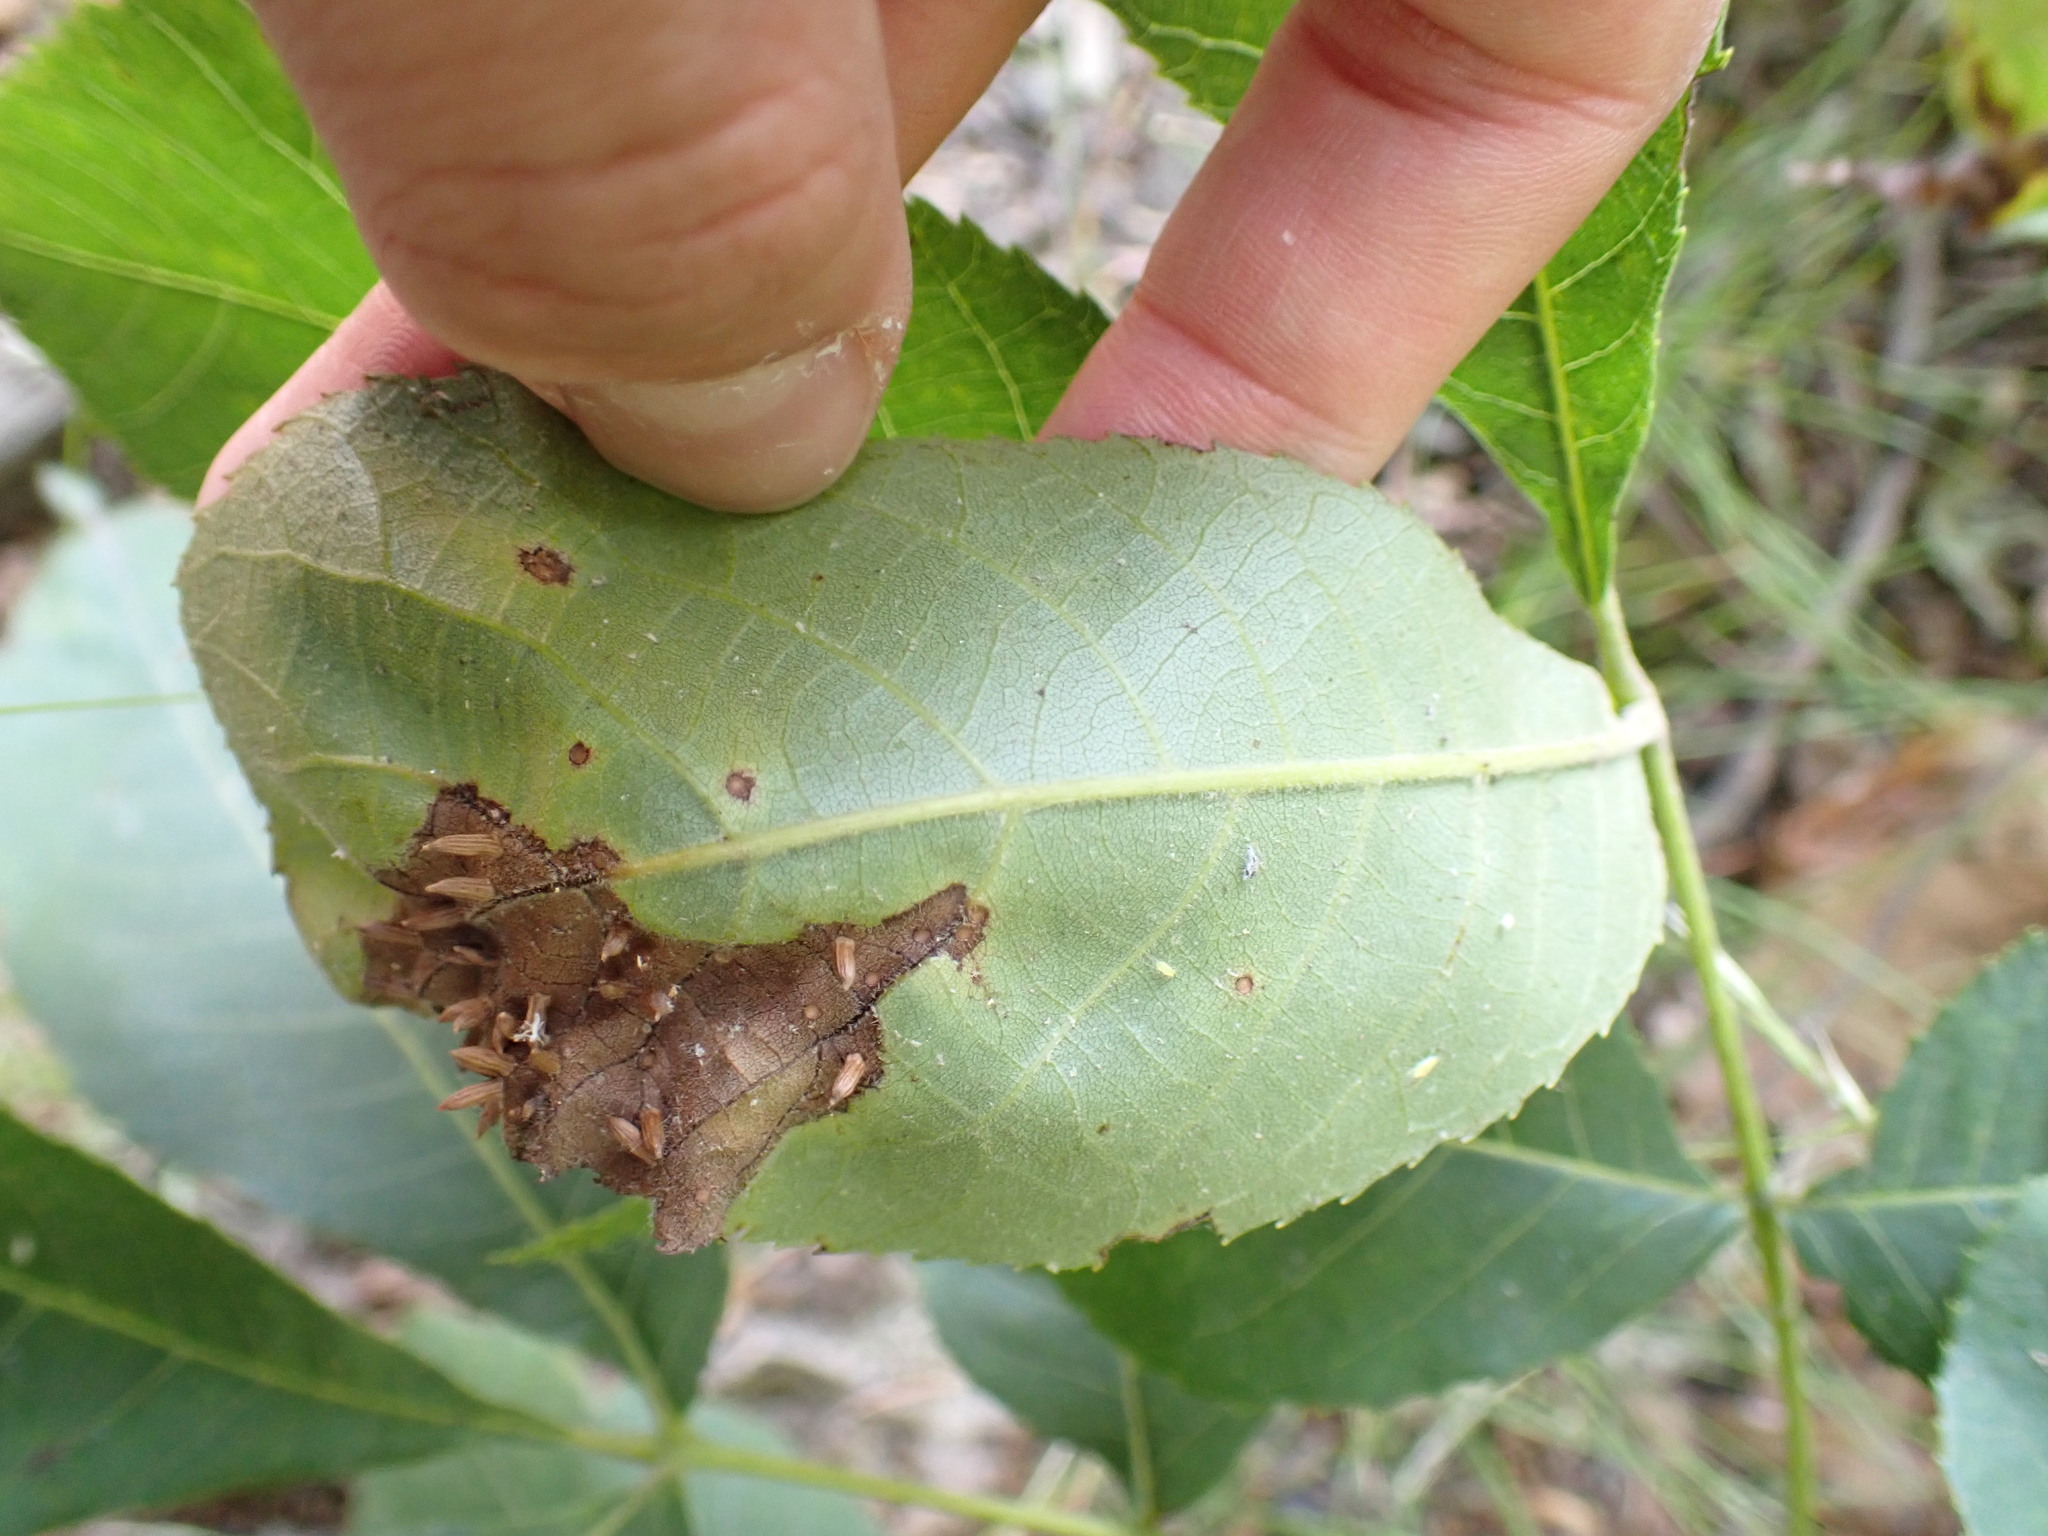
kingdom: Animalia
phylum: Arthropoda
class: Insecta
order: Diptera
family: Cecidomyiidae
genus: Caryomyia
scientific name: Caryomyia striolata
